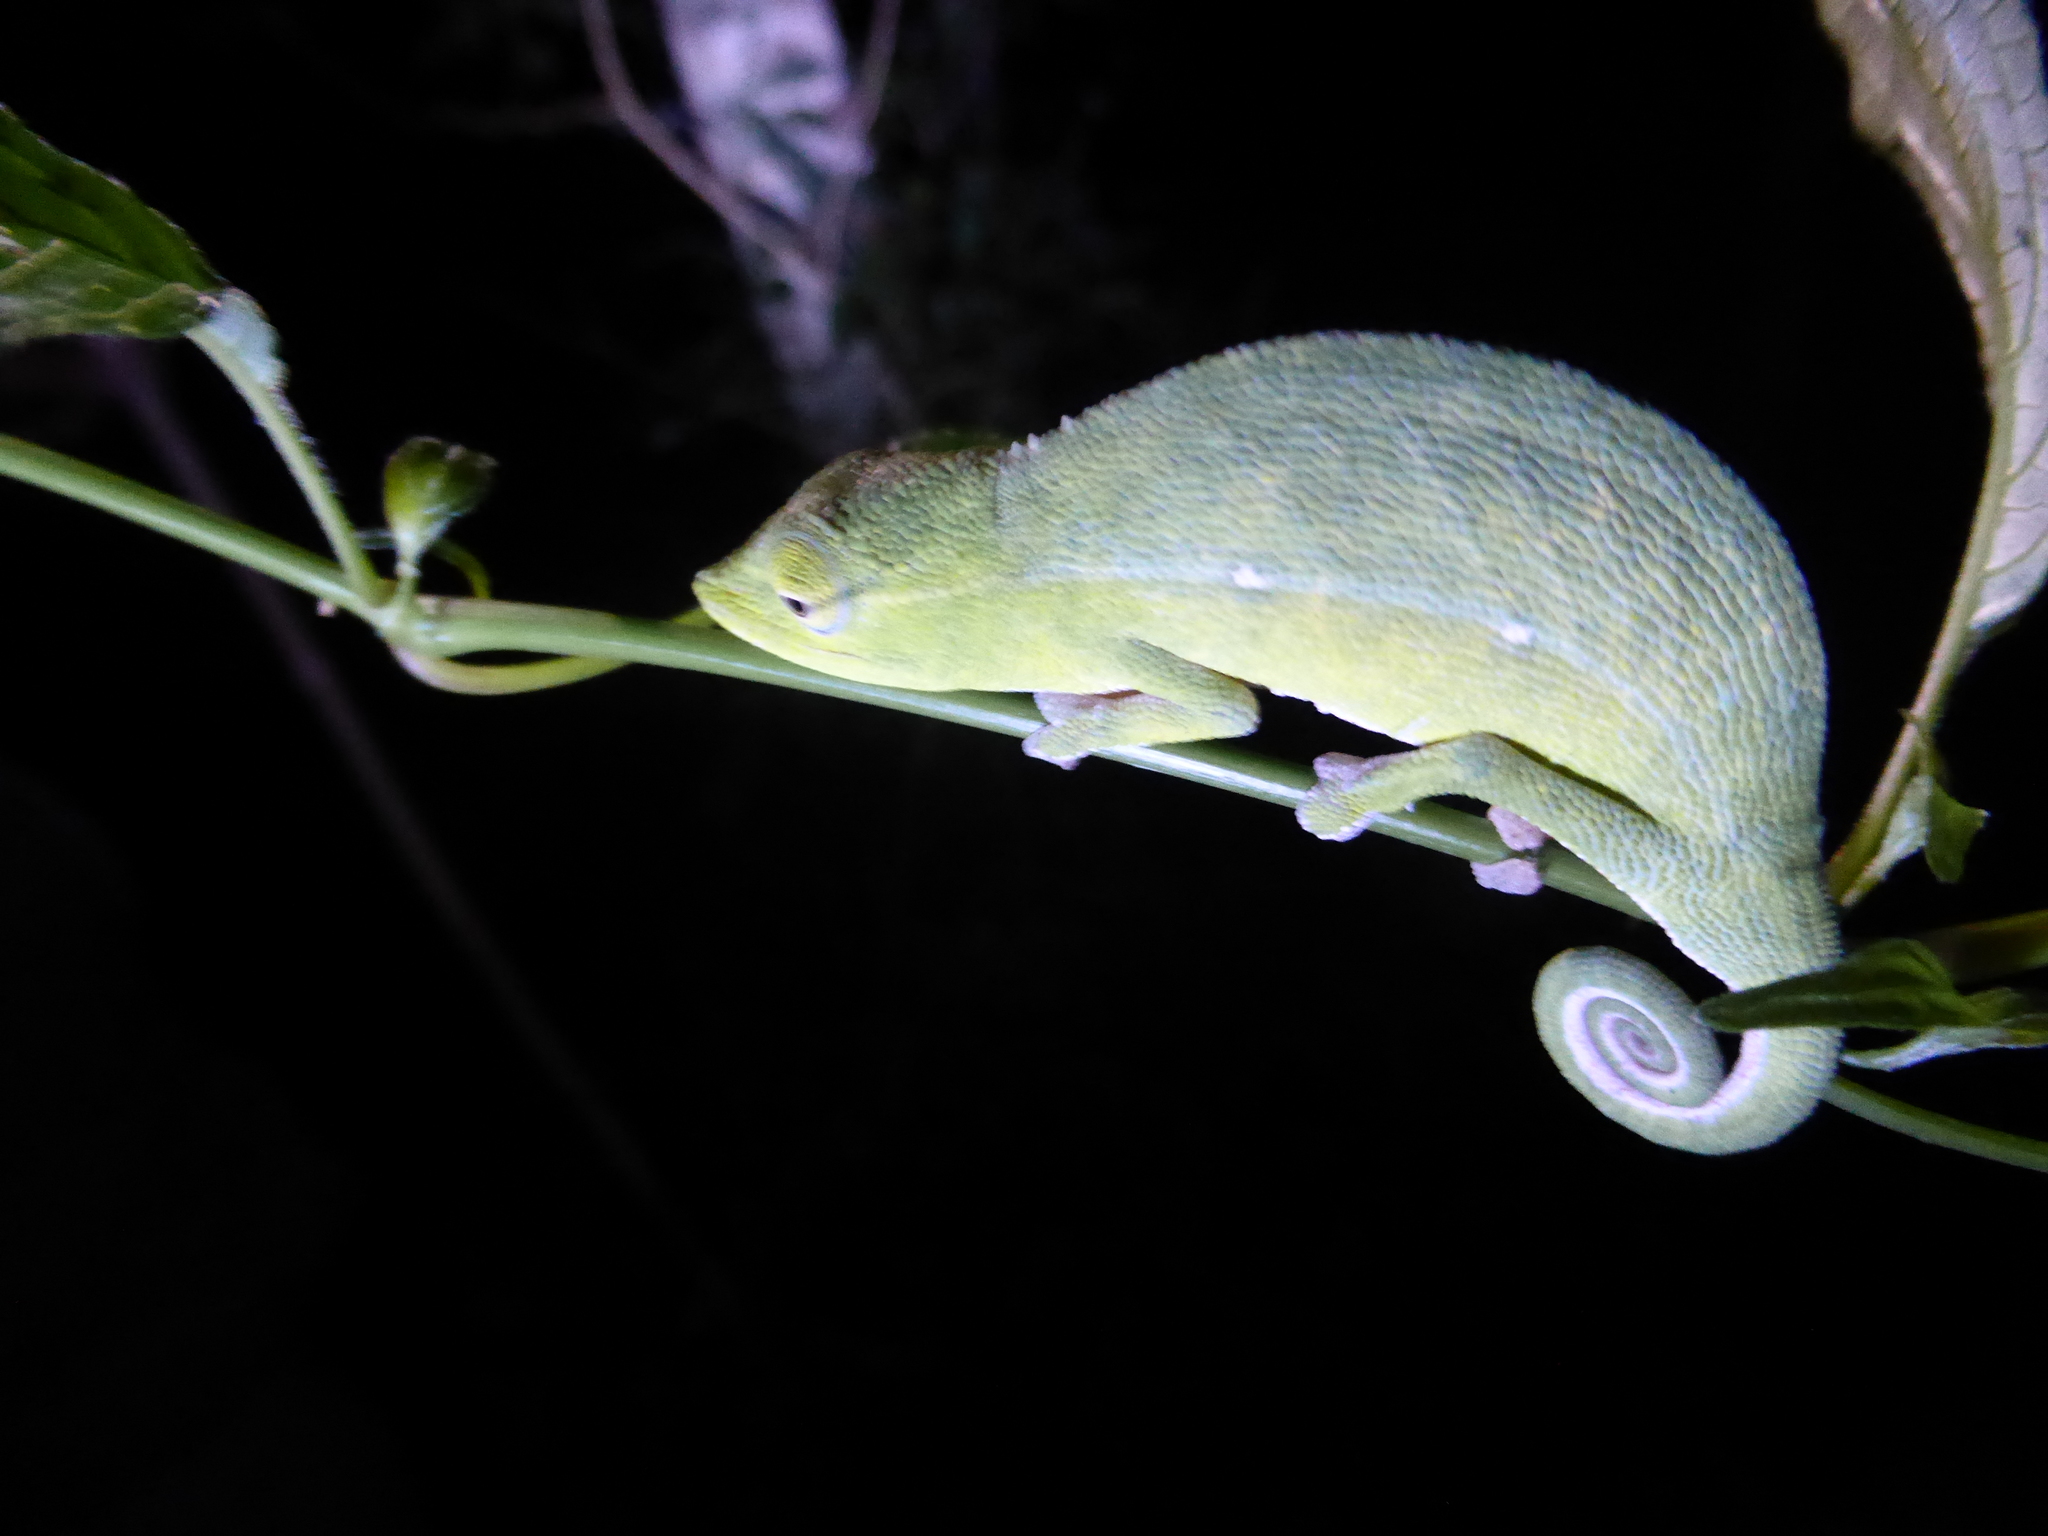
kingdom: Animalia
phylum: Chordata
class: Squamata
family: Chamaeleonidae
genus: Calumma
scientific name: Calumma gastrotaenia
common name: Short-nosed chameleon
